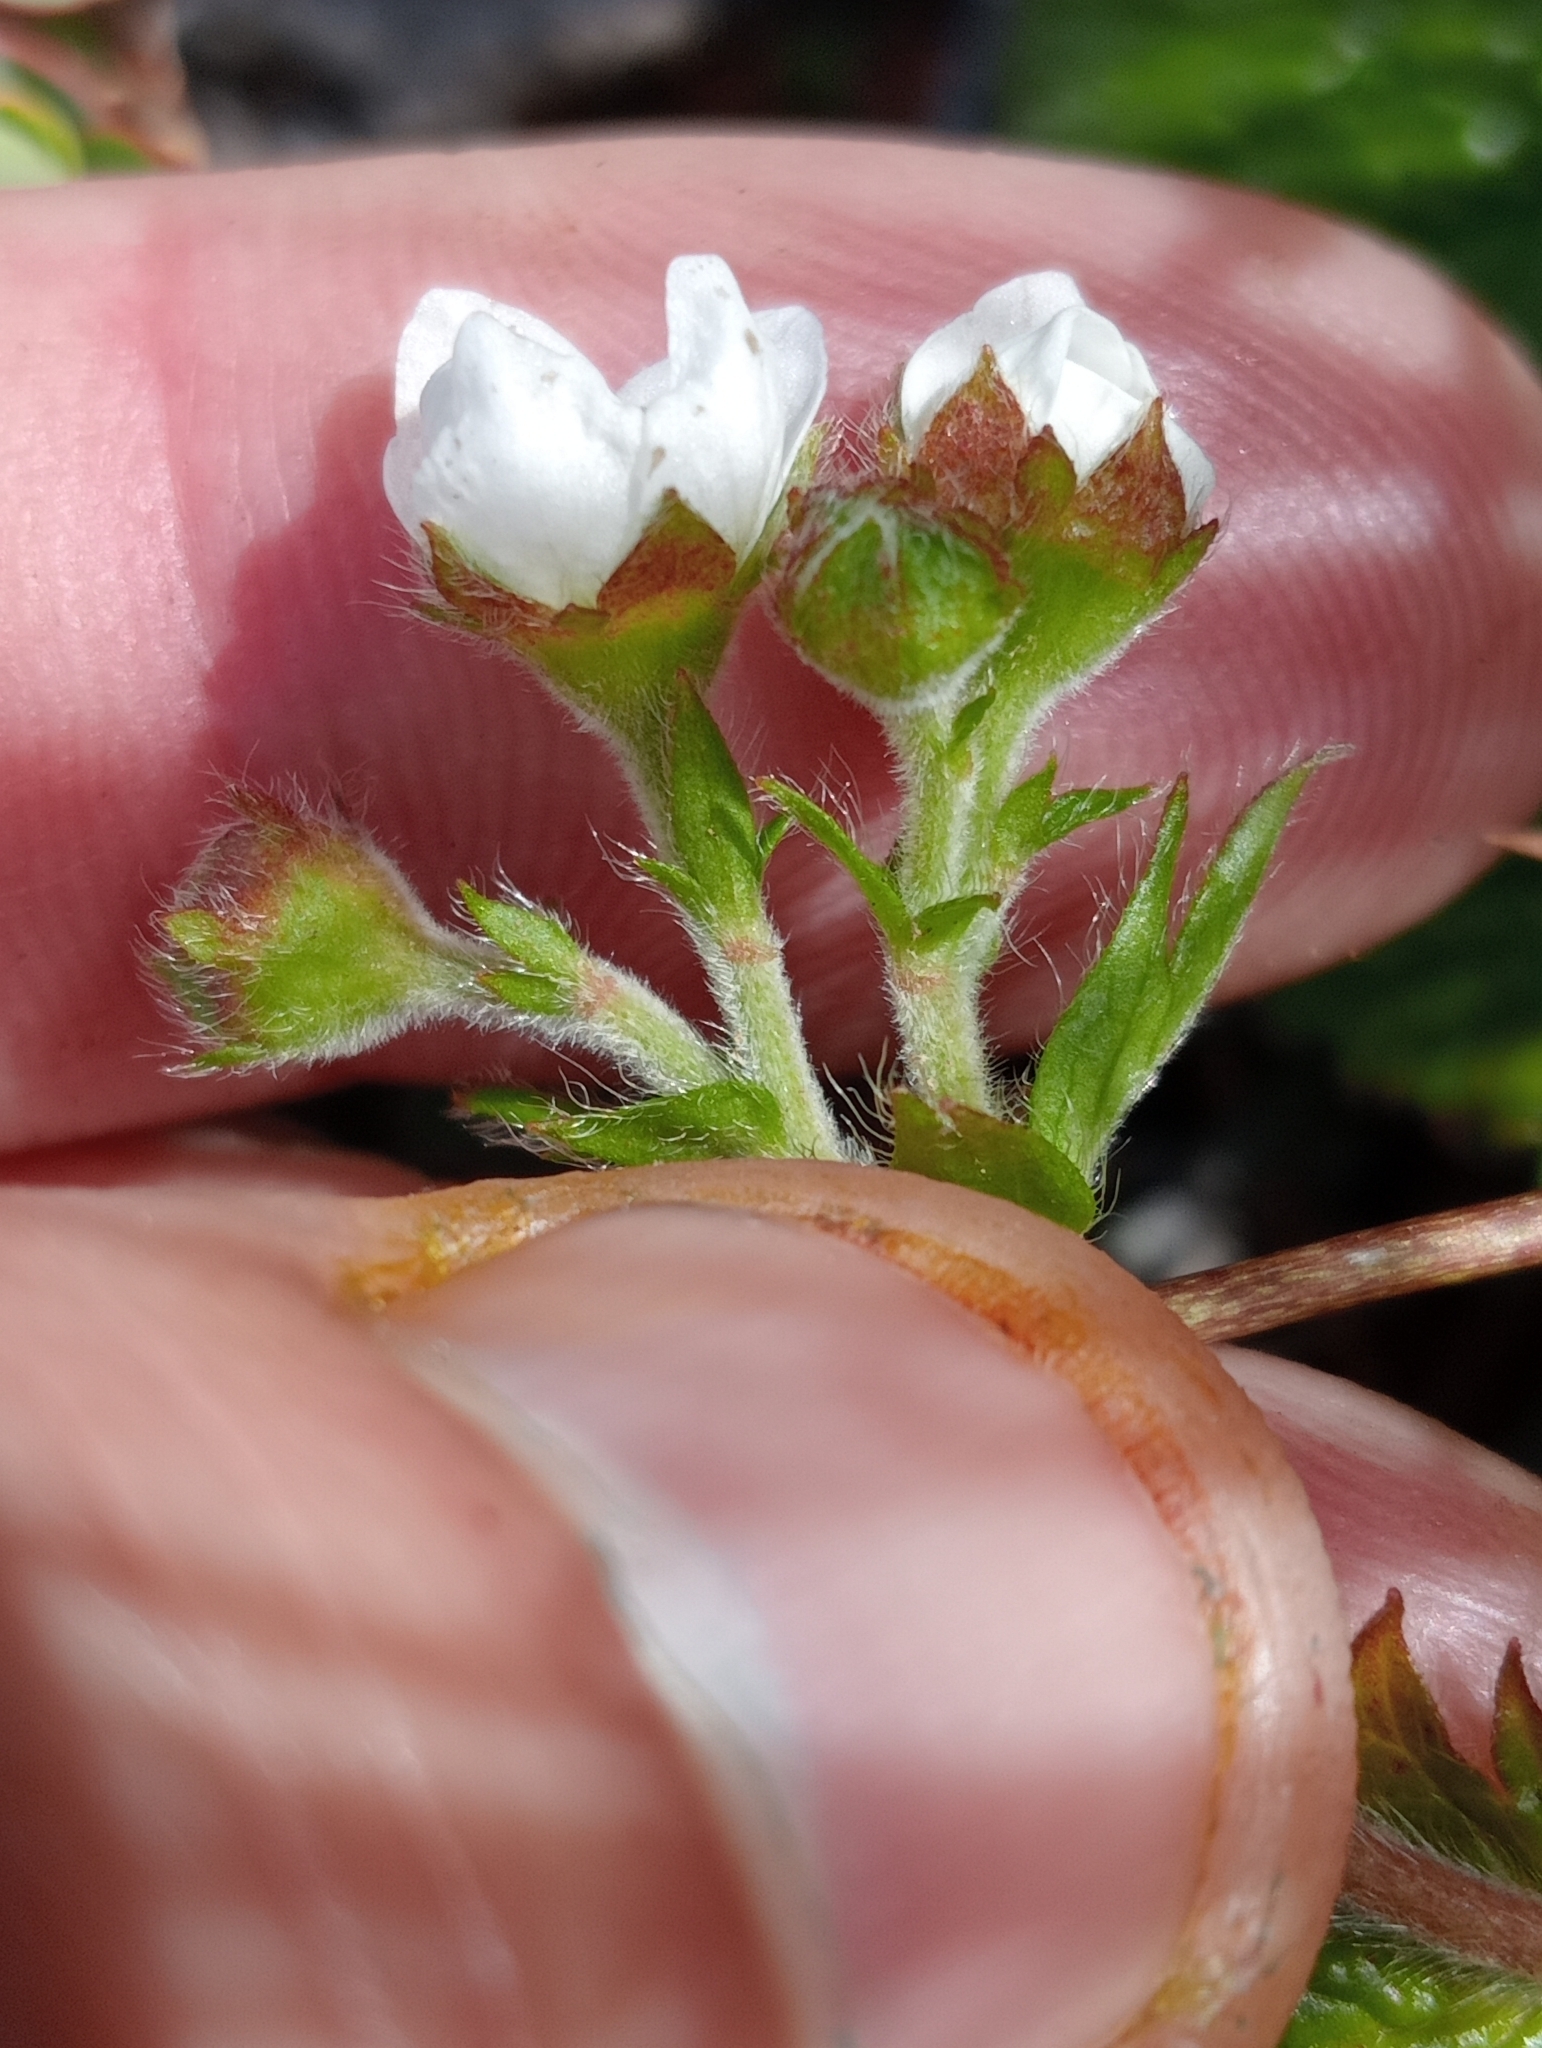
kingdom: Plantae
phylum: Tracheophyta
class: Magnoliopsida
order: Rosales
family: Rosaceae
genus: Geum
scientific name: Geum cockaynei
